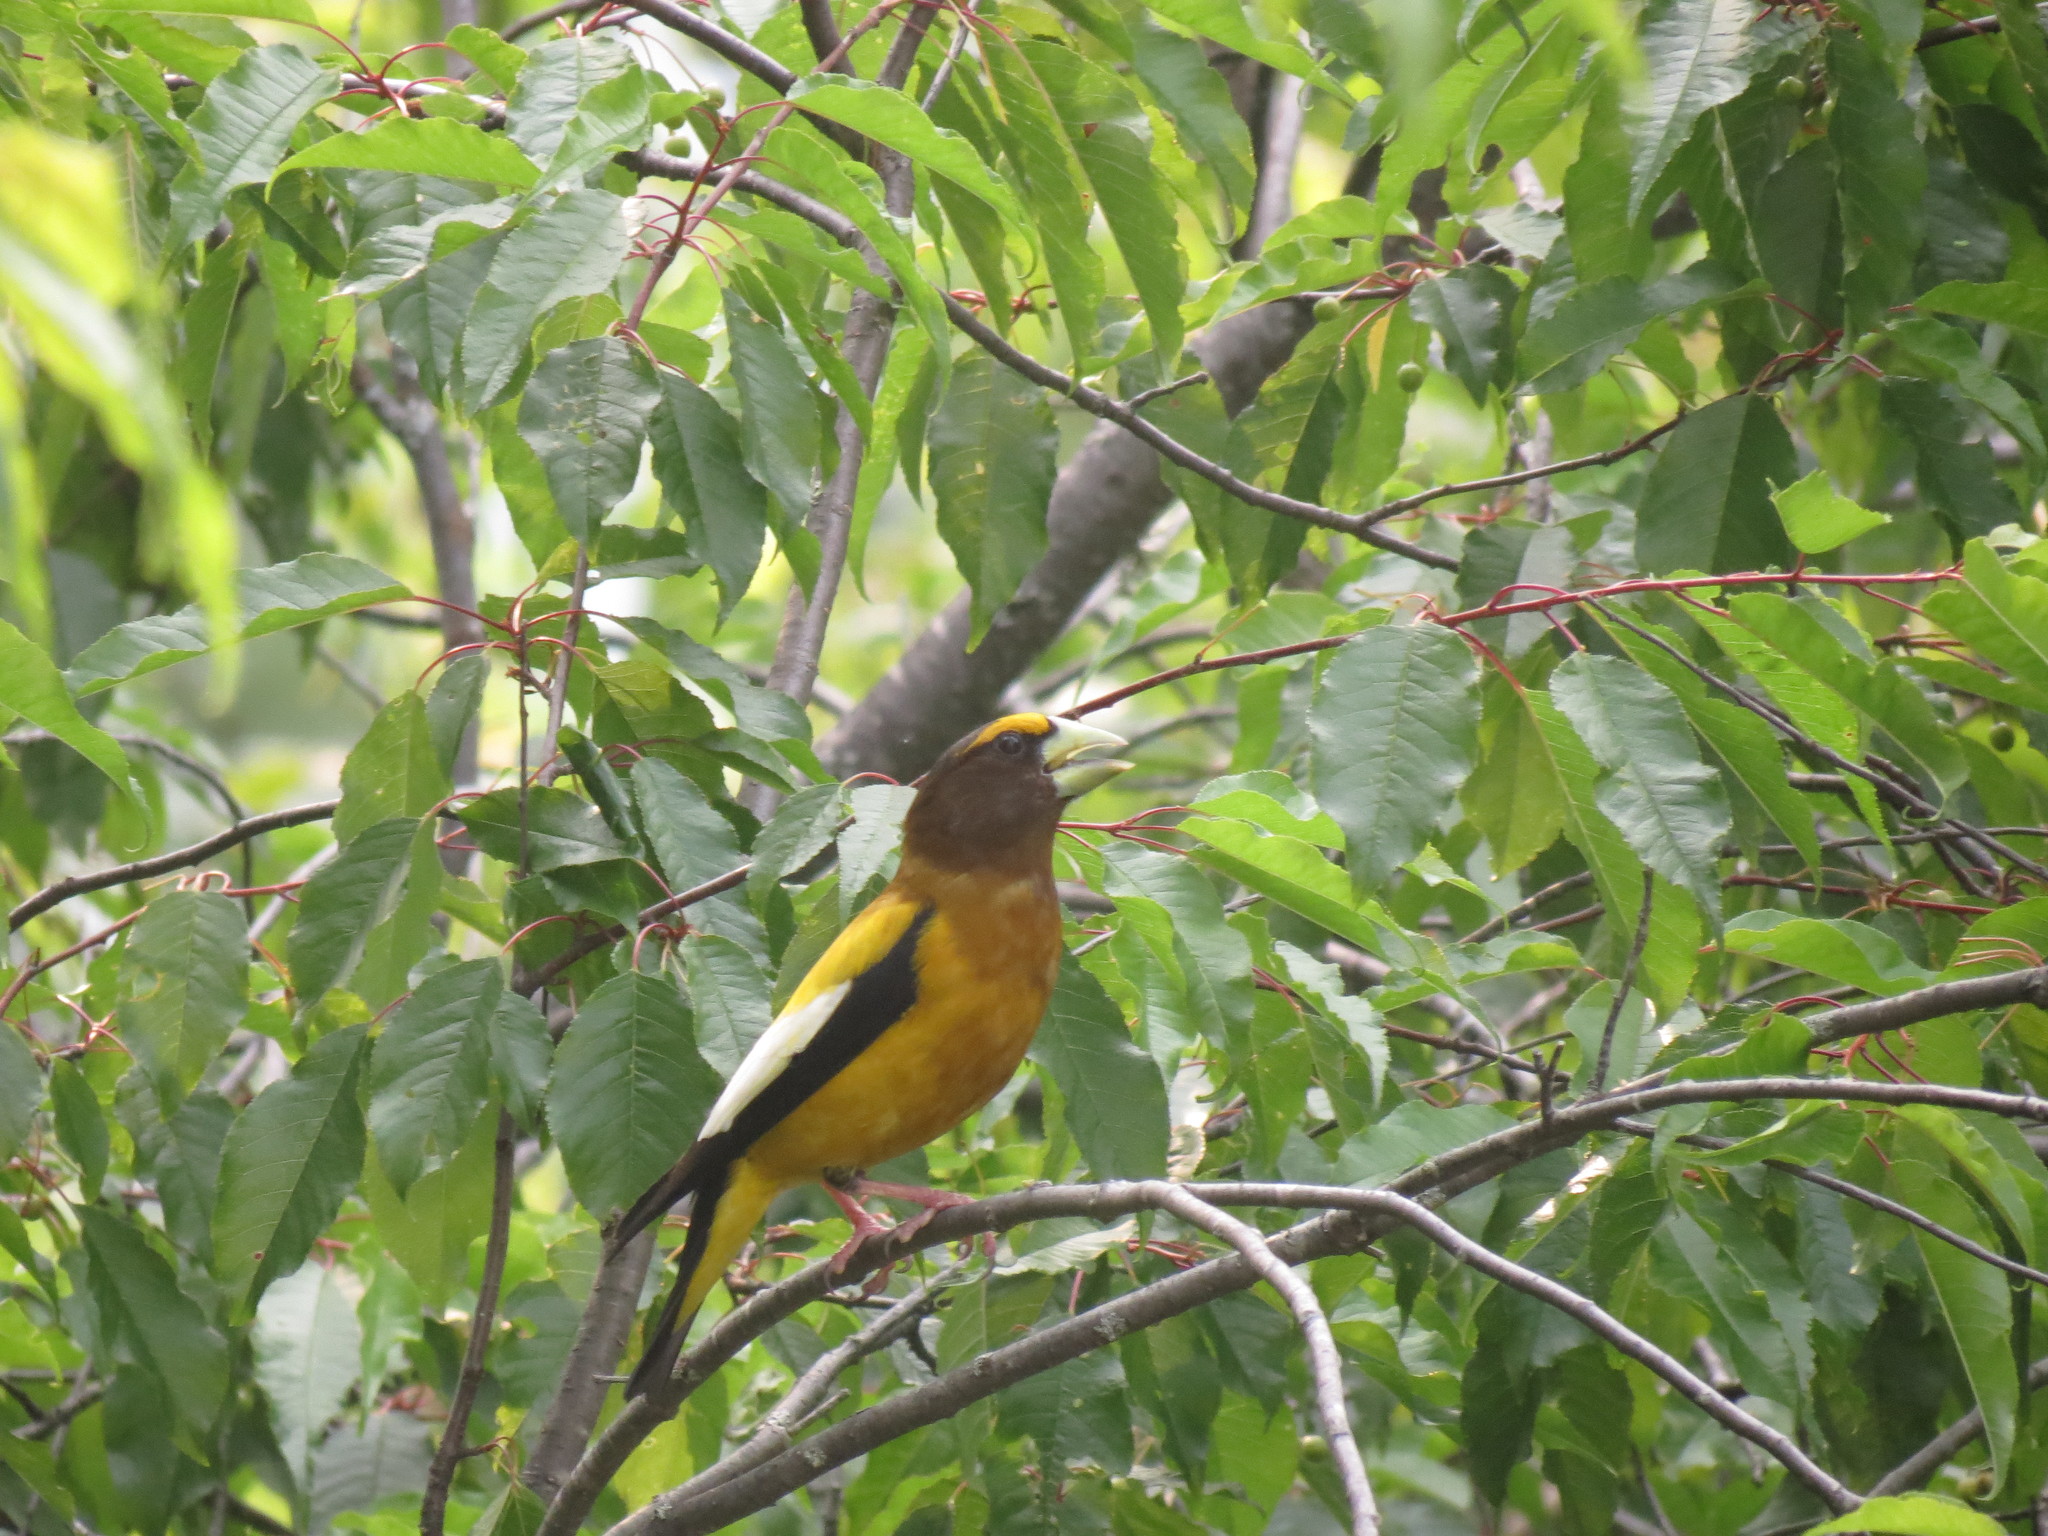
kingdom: Animalia
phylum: Chordata
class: Aves
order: Passeriformes
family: Fringillidae
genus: Hesperiphona
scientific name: Hesperiphona vespertina
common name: Evening grosbeak
